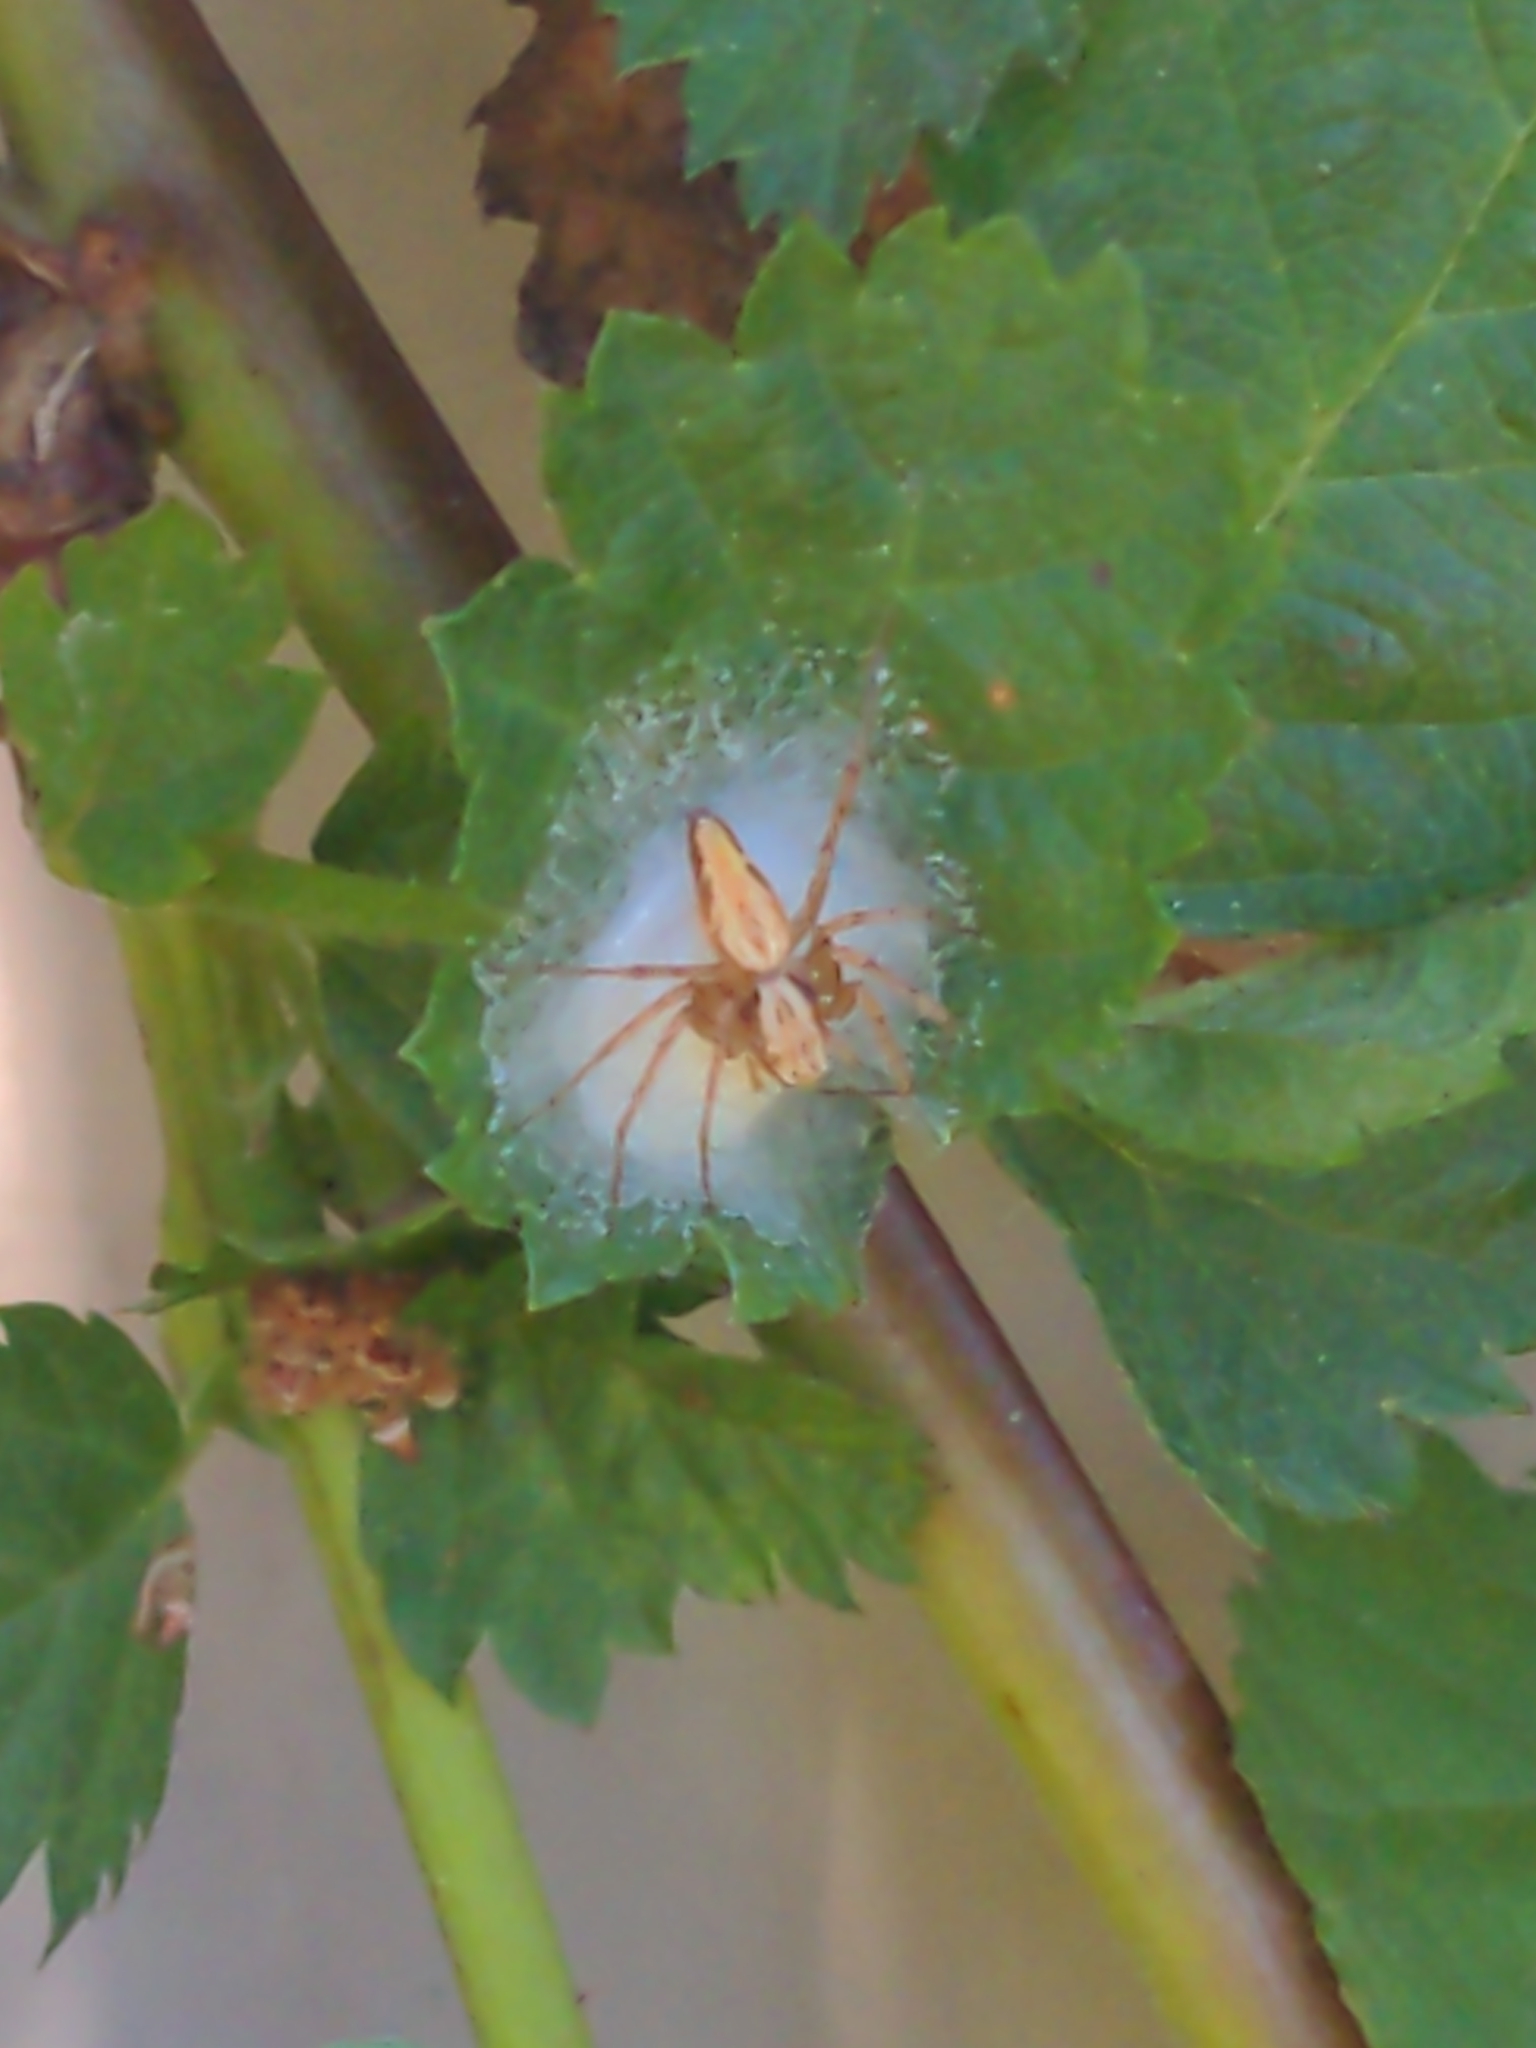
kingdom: Animalia
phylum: Arthropoda
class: Arachnida
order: Araneae
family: Oxyopidae
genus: Oxyopes
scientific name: Oxyopes gracilipes
